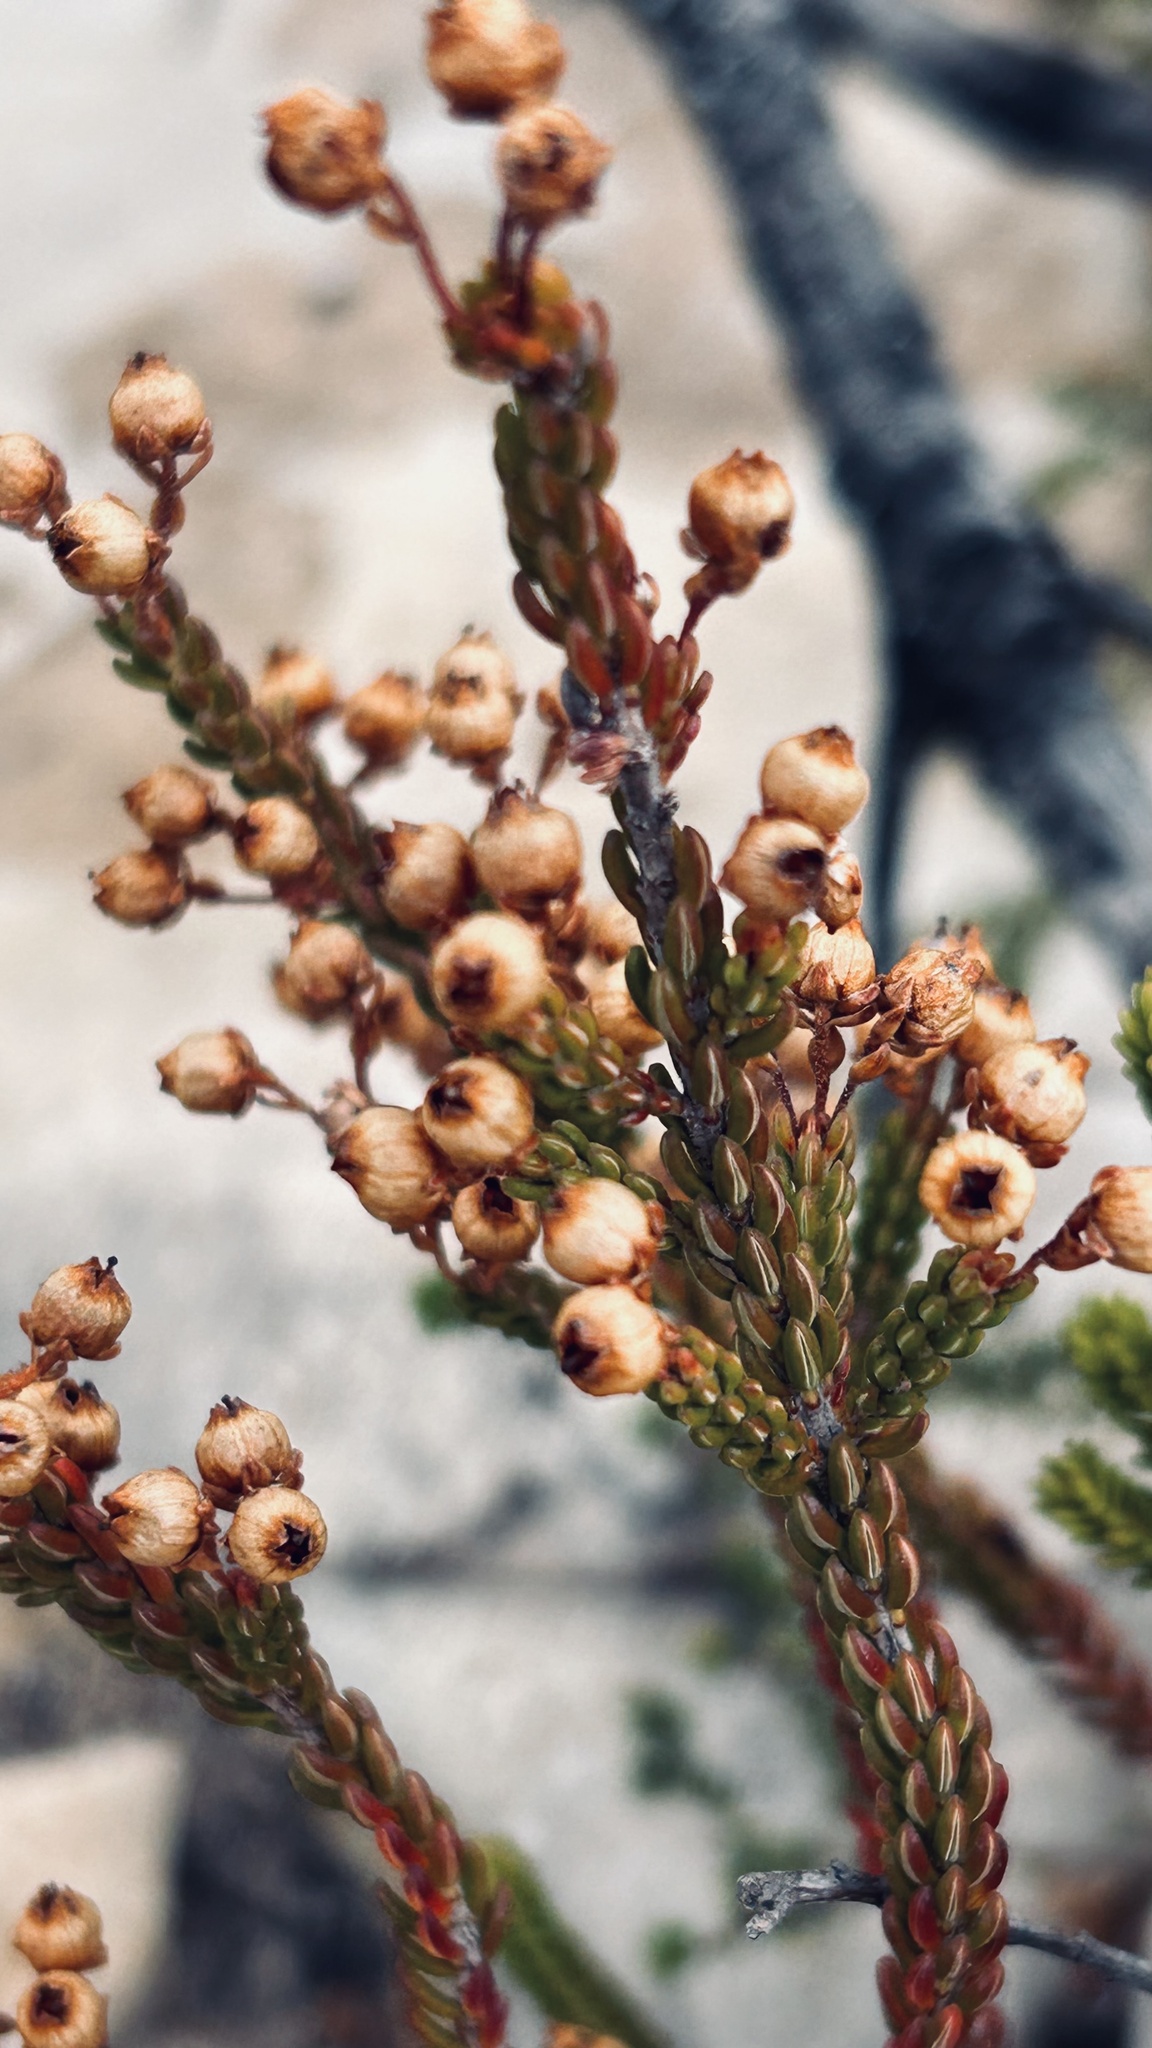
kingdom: Plantae
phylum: Tracheophyta
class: Magnoliopsida
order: Ericales
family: Ericaceae
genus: Erica
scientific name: Erica spectabilis
